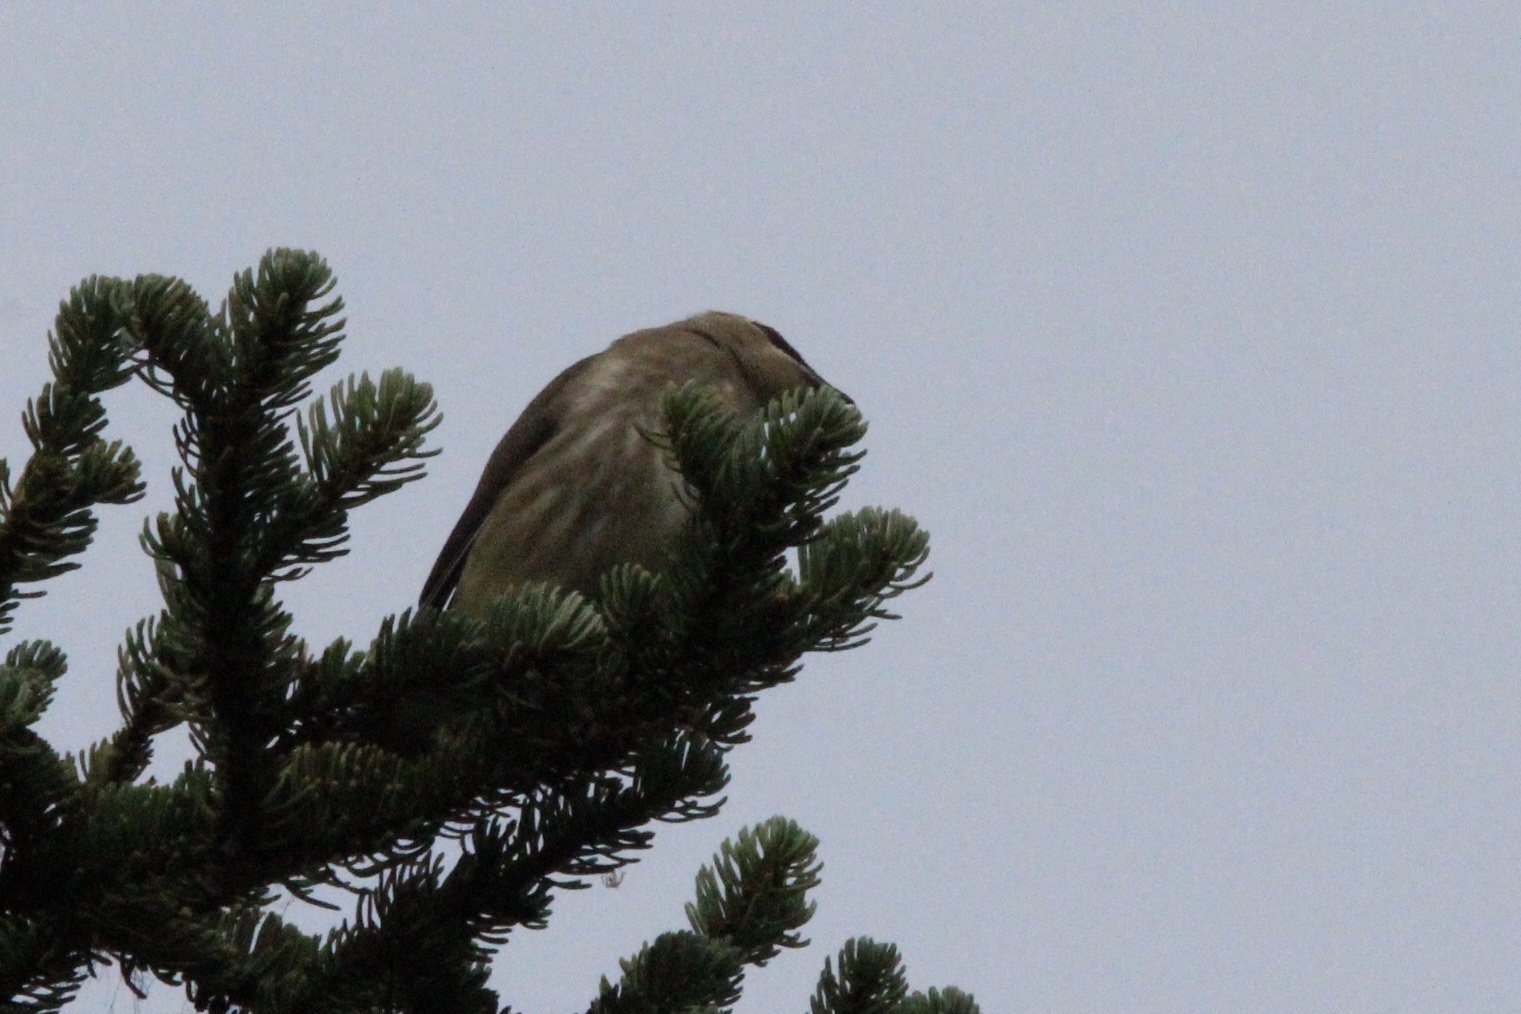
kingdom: Animalia
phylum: Chordata
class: Aves
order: Passeriformes
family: Bombycillidae
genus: Bombycilla
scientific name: Bombycilla cedrorum
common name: Cedar waxwing
